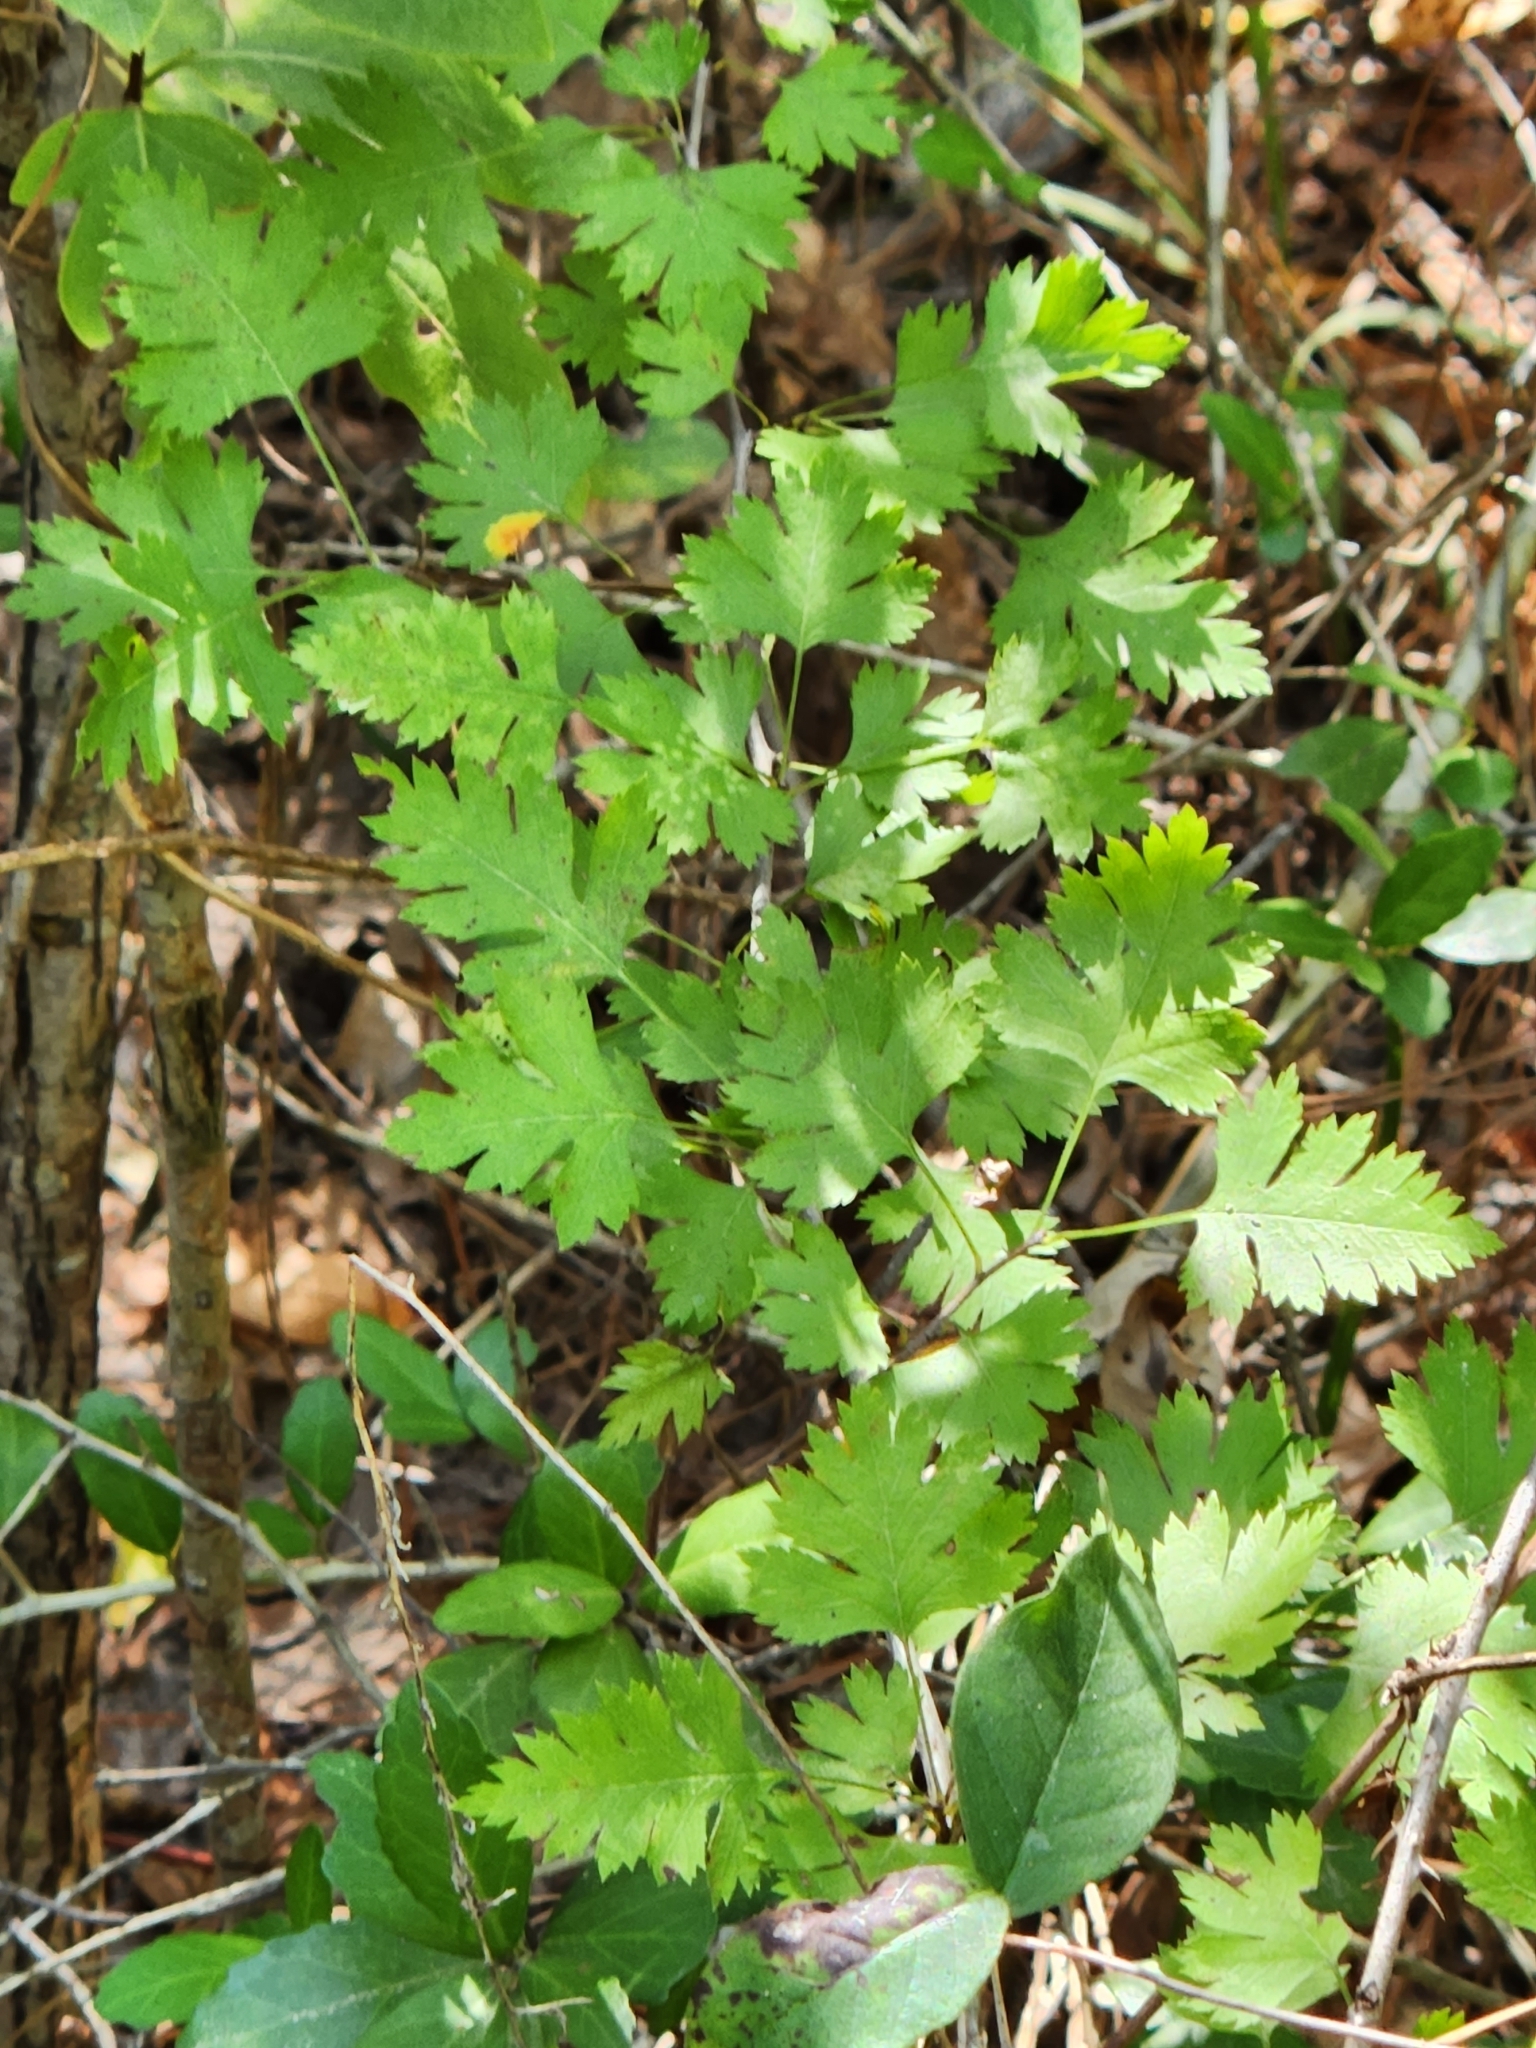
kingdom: Plantae
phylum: Tracheophyta
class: Magnoliopsida
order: Rosales
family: Rosaceae
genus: Crataegus
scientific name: Crataegus marshallii
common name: Parsley-hawthorn
